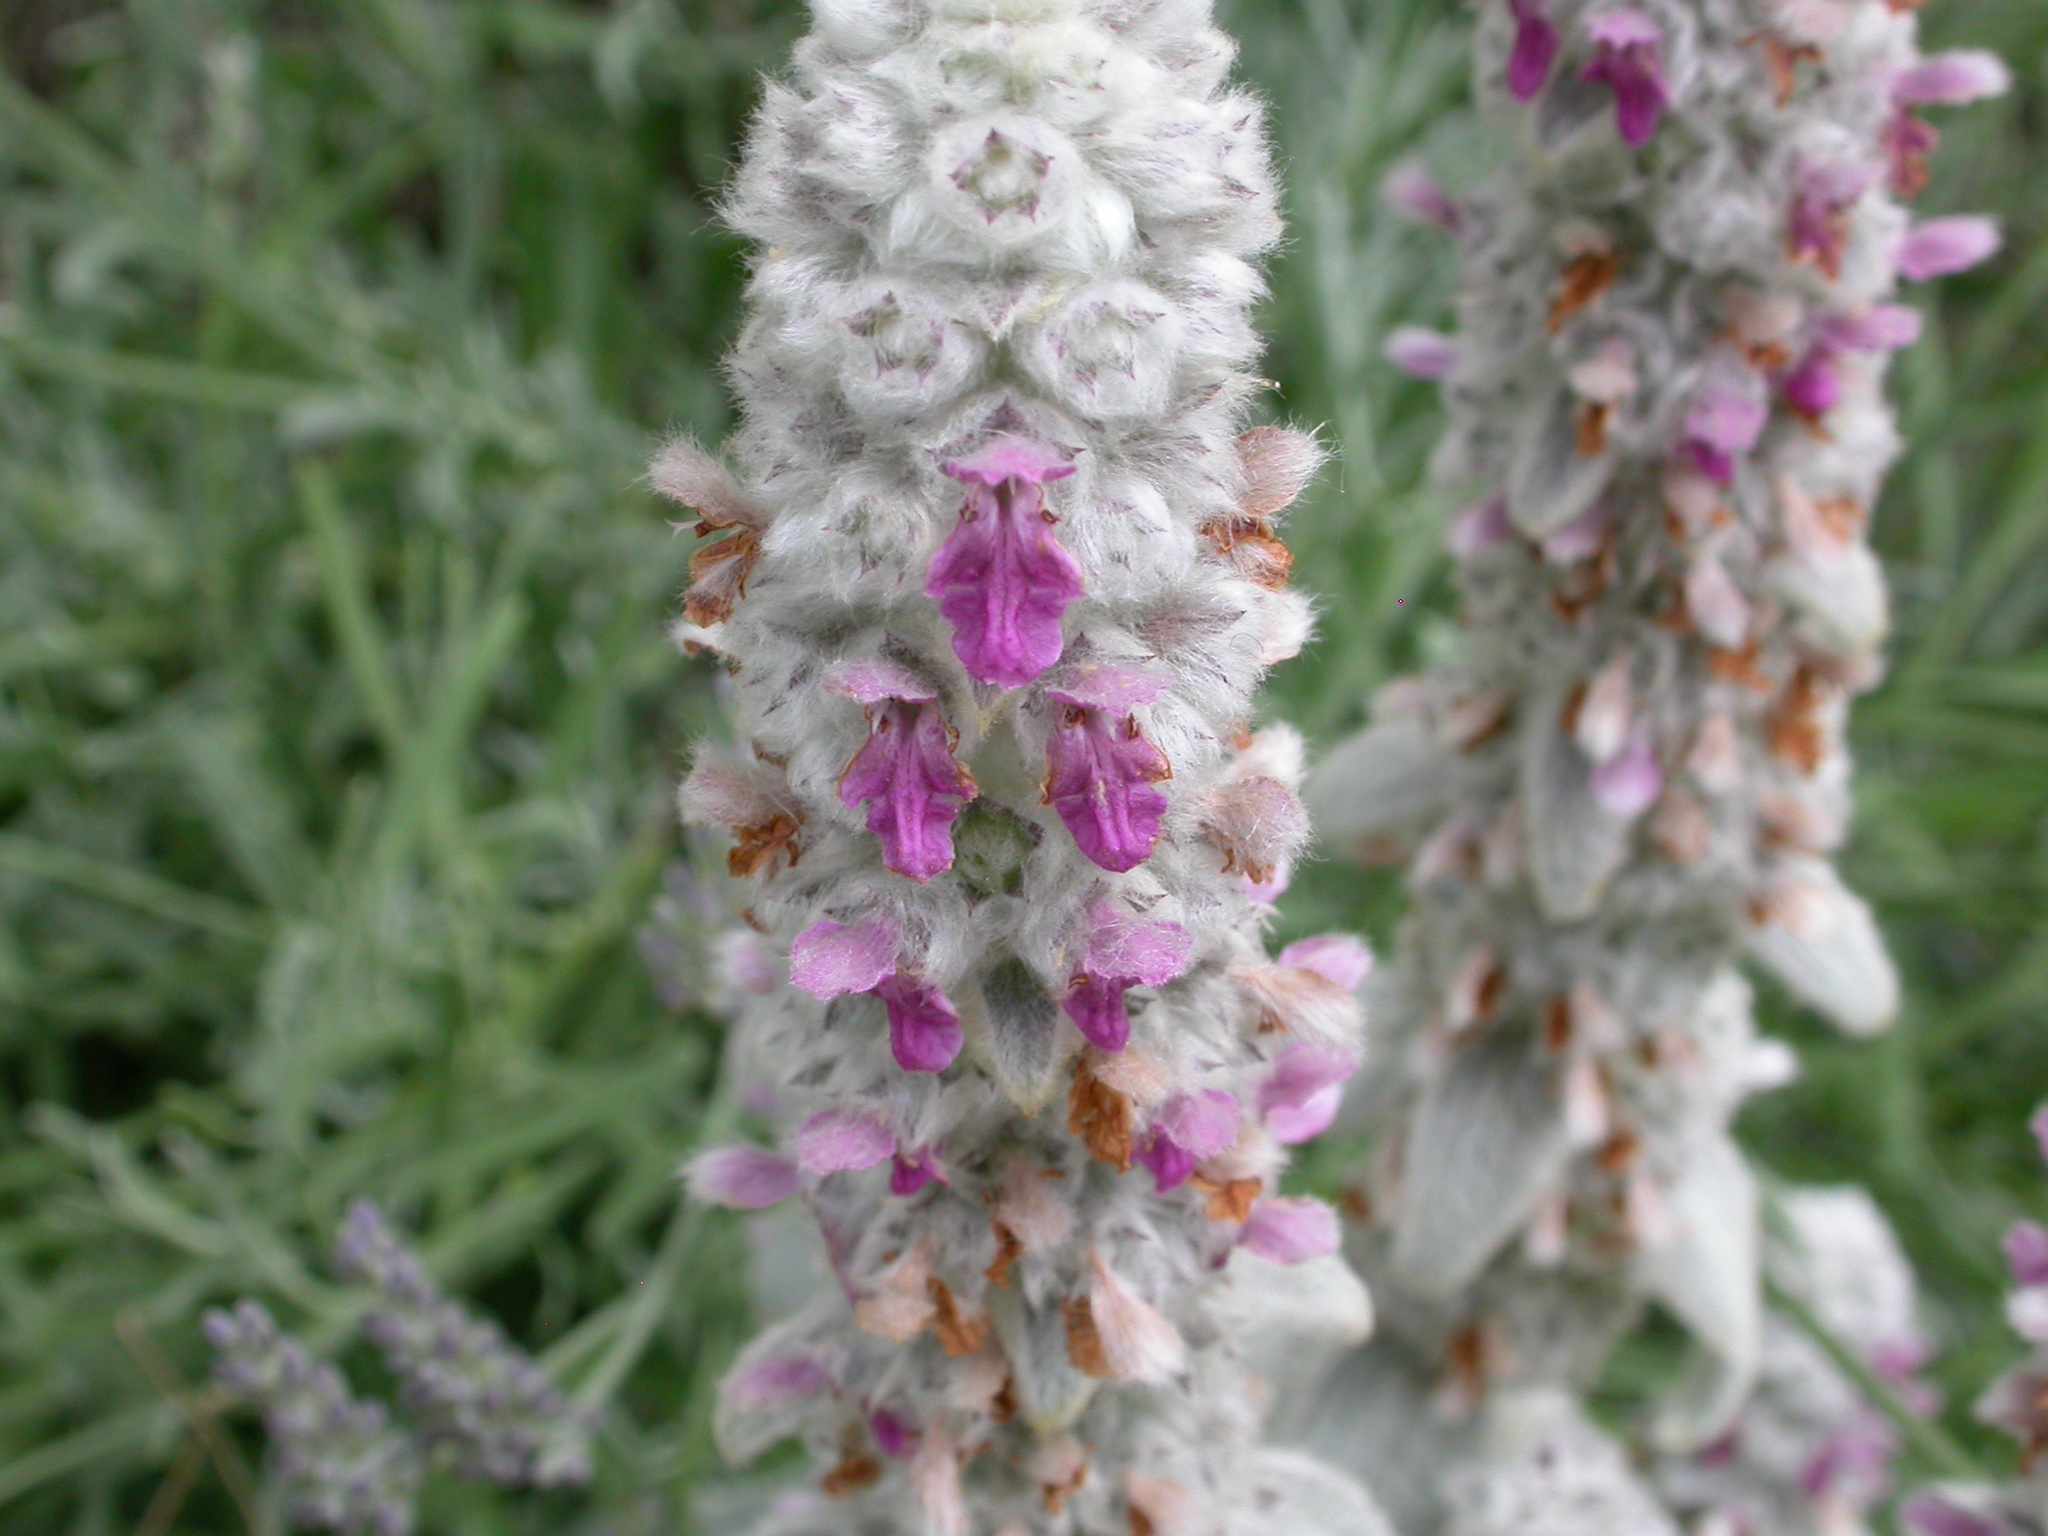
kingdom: Plantae
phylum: Tracheophyta
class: Magnoliopsida
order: Lamiales
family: Lamiaceae
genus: Stachys
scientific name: Stachys byzantina
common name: Lamb's-ear
